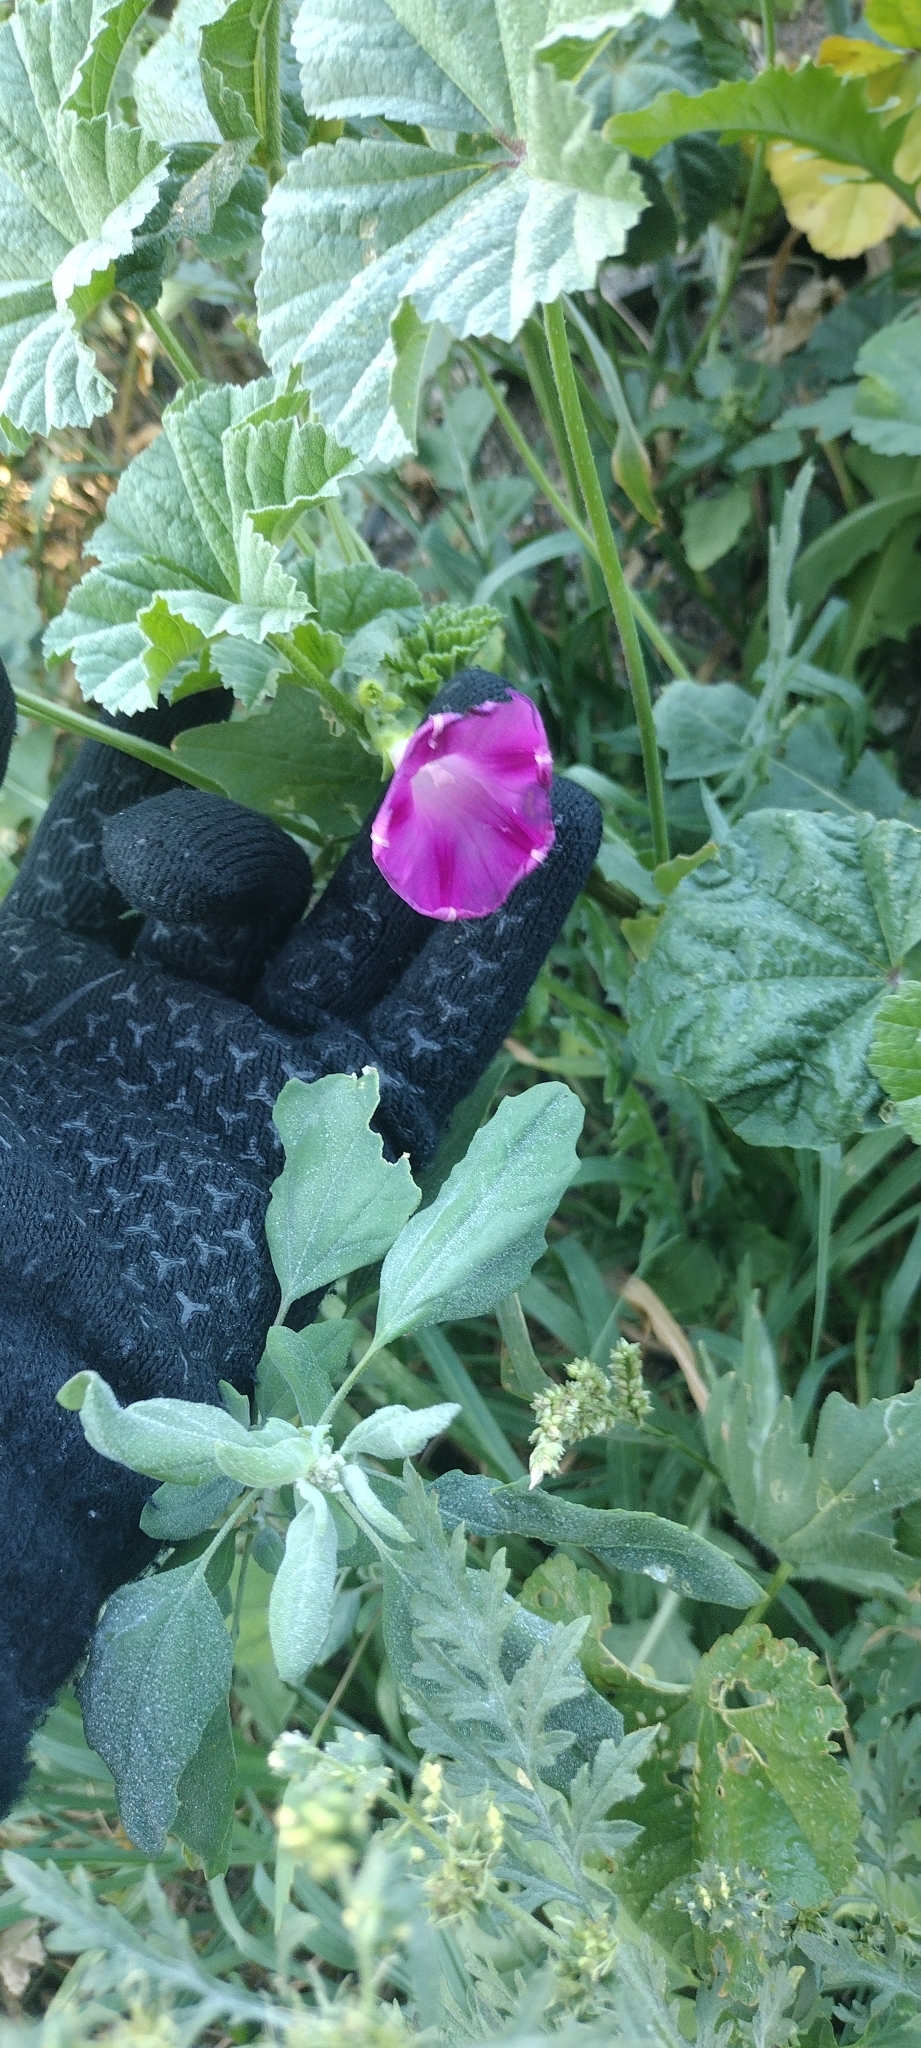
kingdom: Plantae
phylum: Tracheophyta
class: Magnoliopsida
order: Solanales
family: Convolvulaceae
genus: Ipomoea
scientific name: Ipomoea purpurea
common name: Common morning-glory
